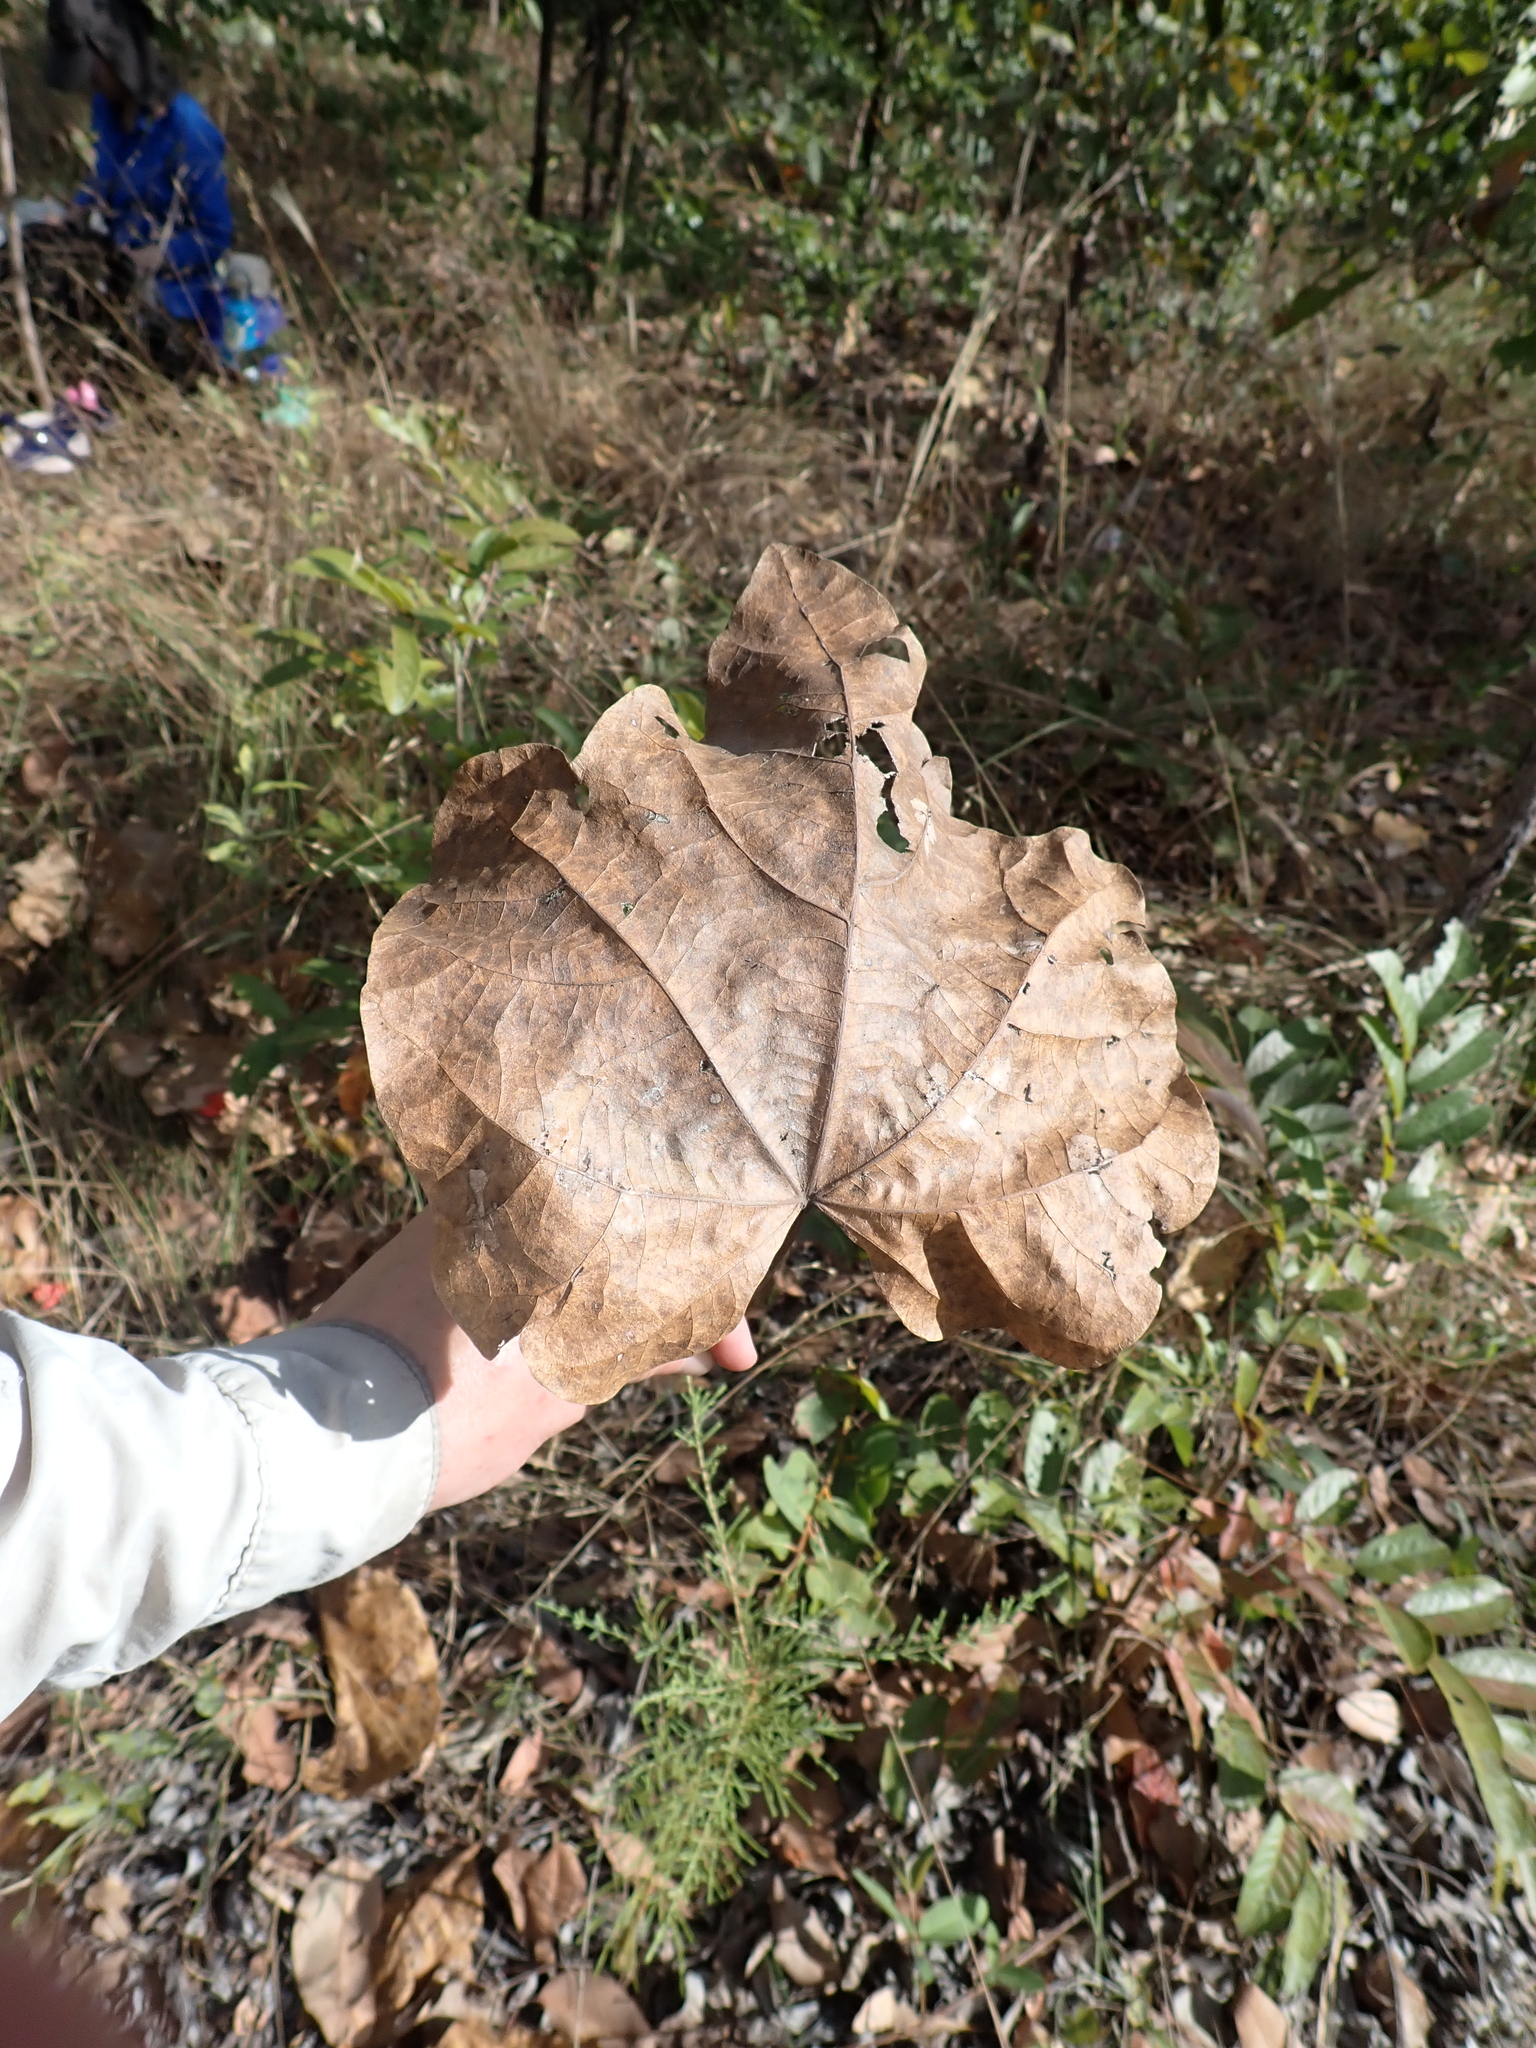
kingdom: Plantae
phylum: Tracheophyta
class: Magnoliopsida
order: Malvales
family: Malvaceae
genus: Brachychiton
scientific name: Brachychiton megaphyllus
